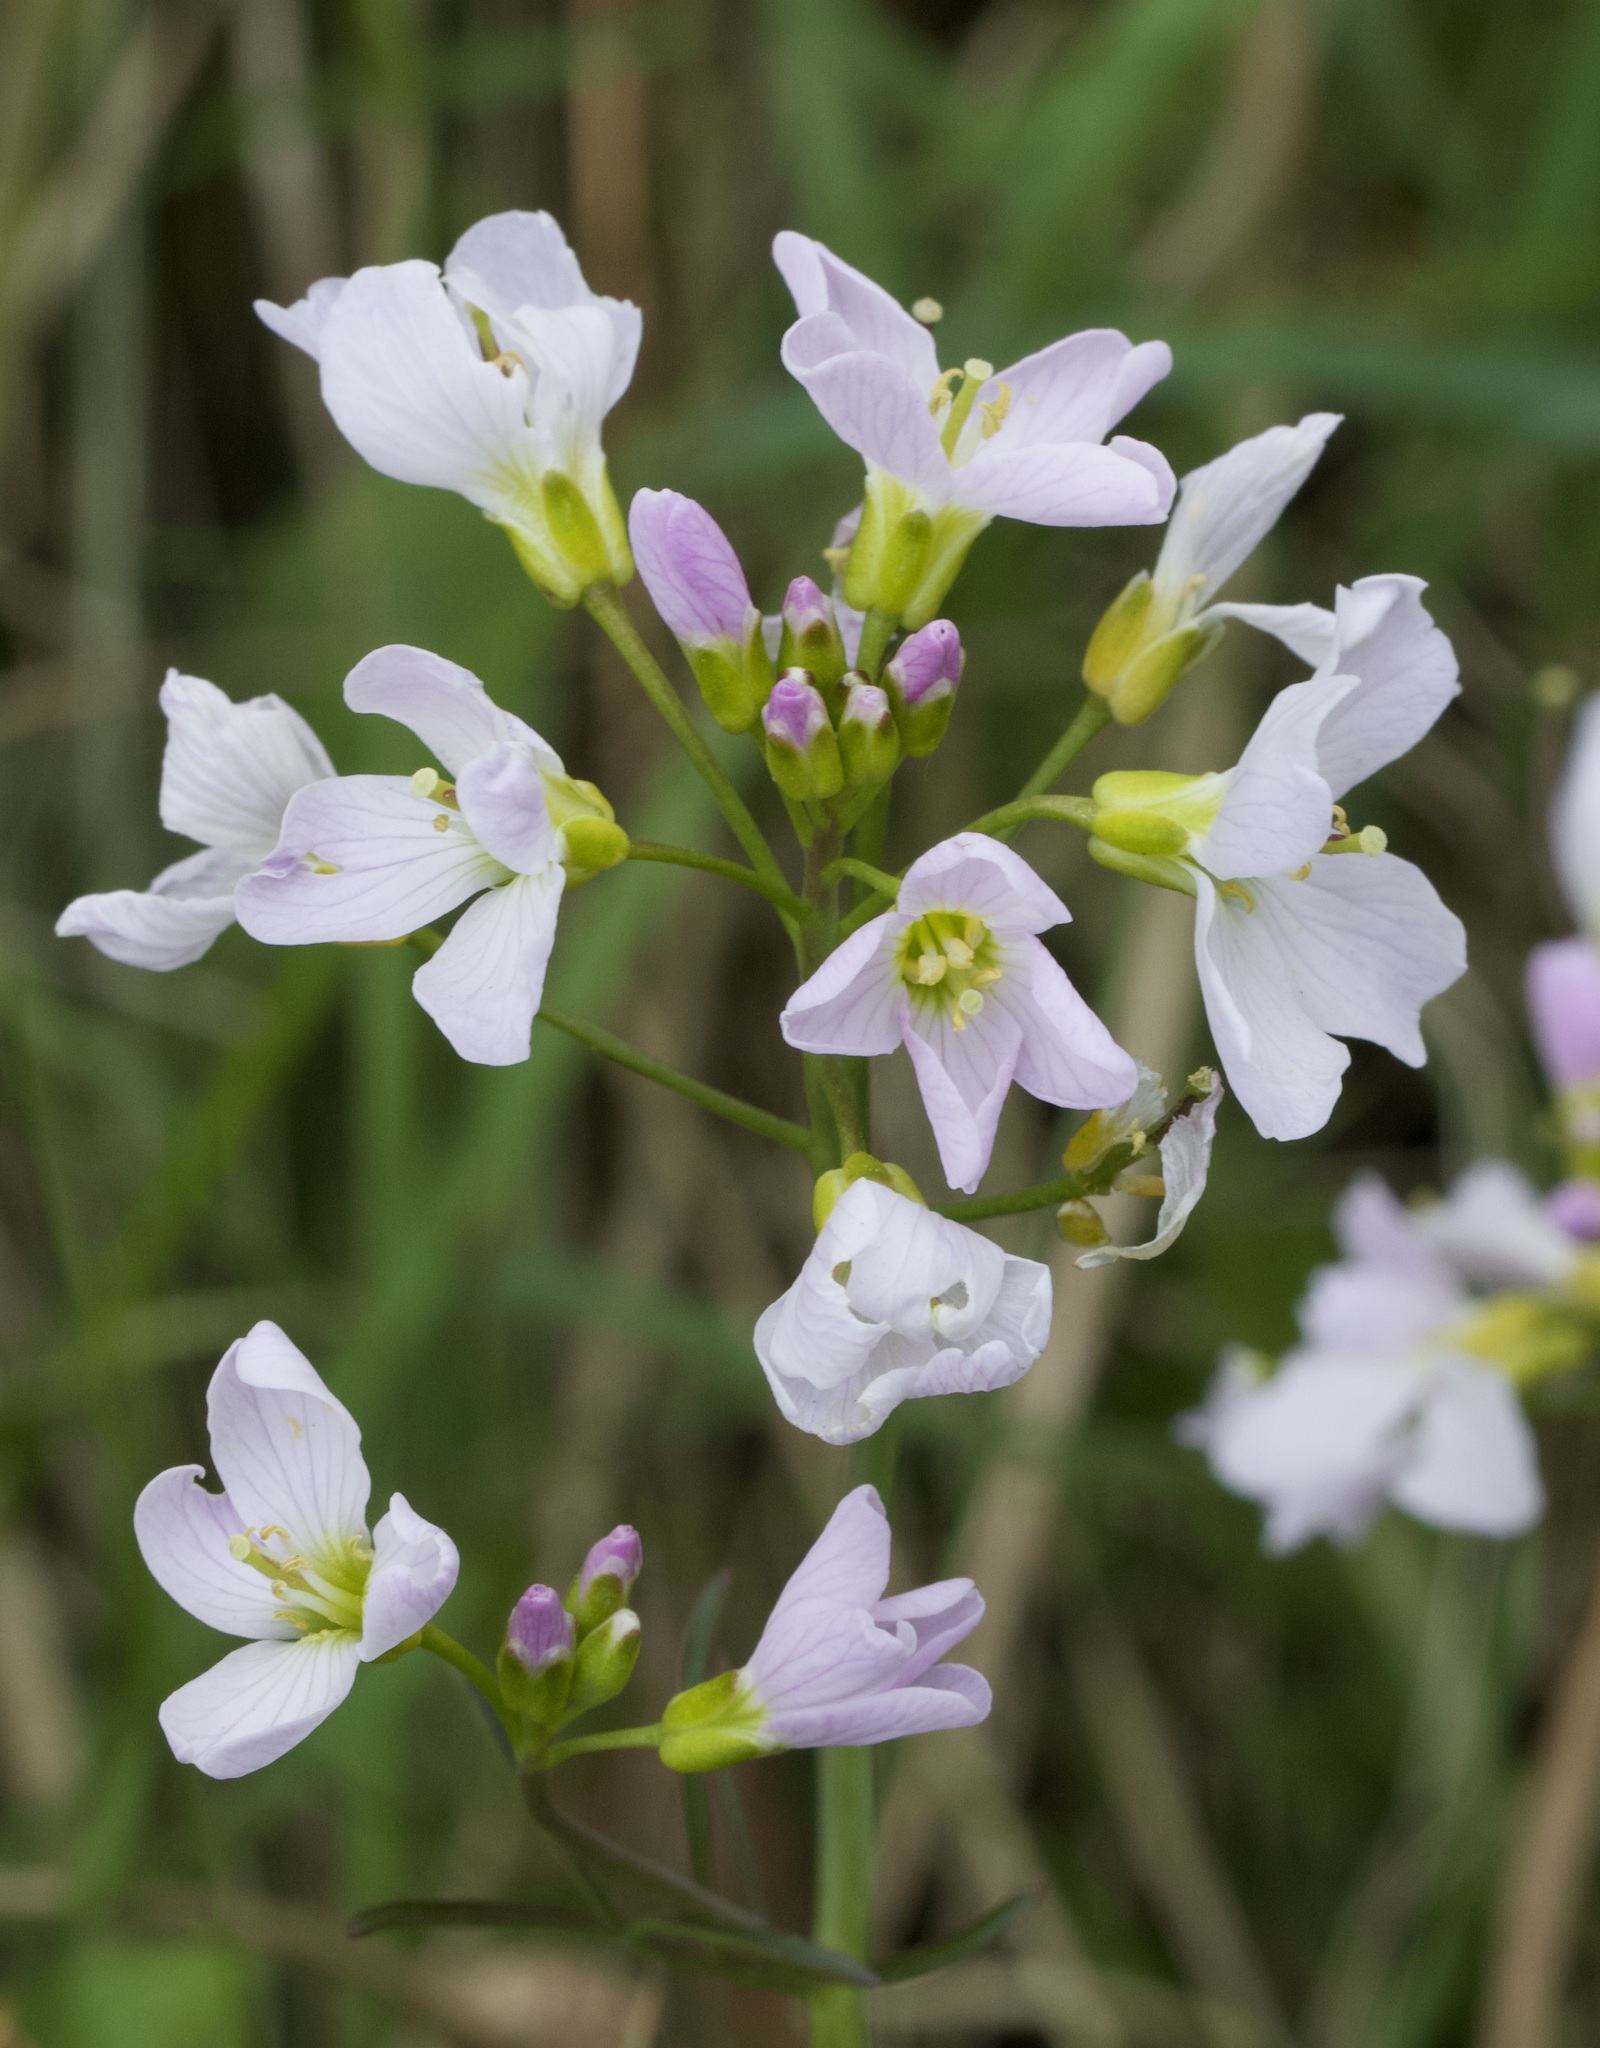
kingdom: Plantae
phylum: Tracheophyta
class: Magnoliopsida
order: Brassicales
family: Brassicaceae
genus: Cardamine
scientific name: Cardamine pratensis
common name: Cuckoo flower
